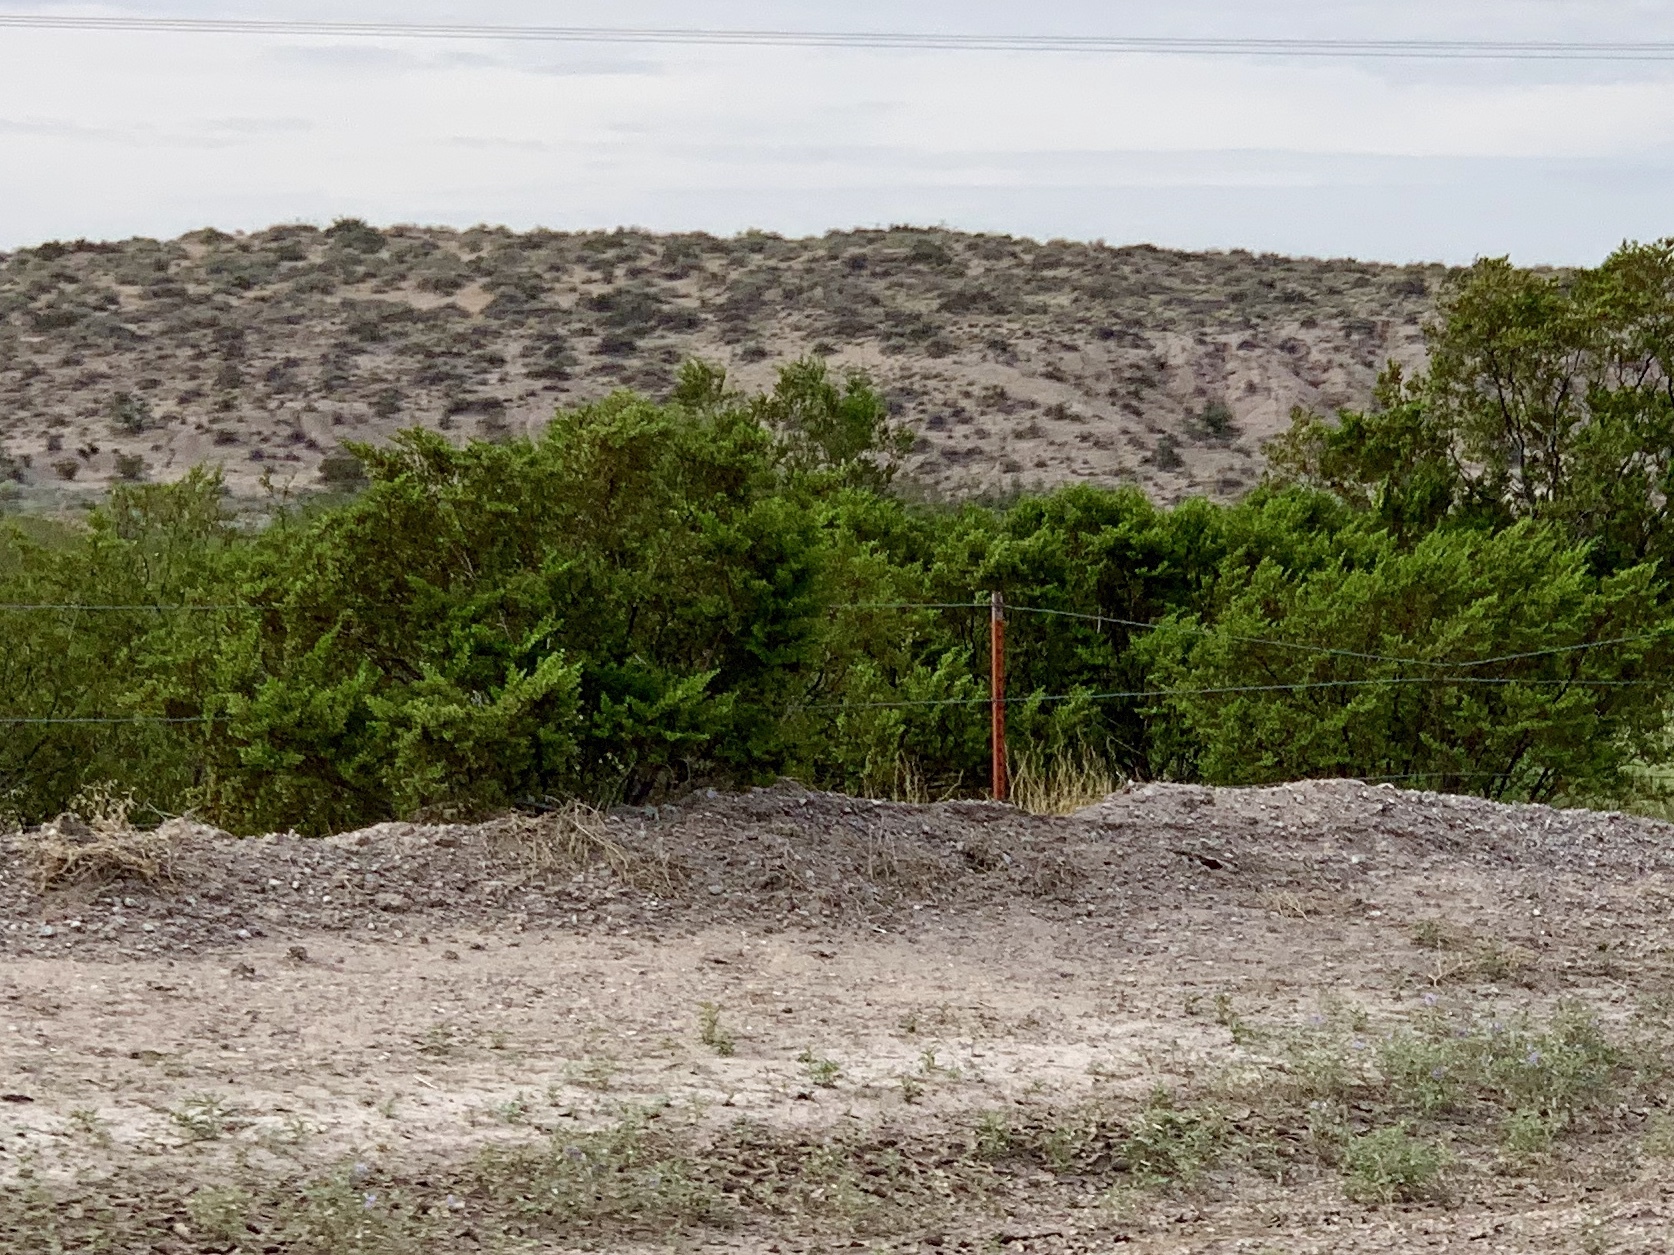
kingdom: Plantae
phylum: Tracheophyta
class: Magnoliopsida
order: Zygophyllales
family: Zygophyllaceae
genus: Larrea
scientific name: Larrea tridentata
